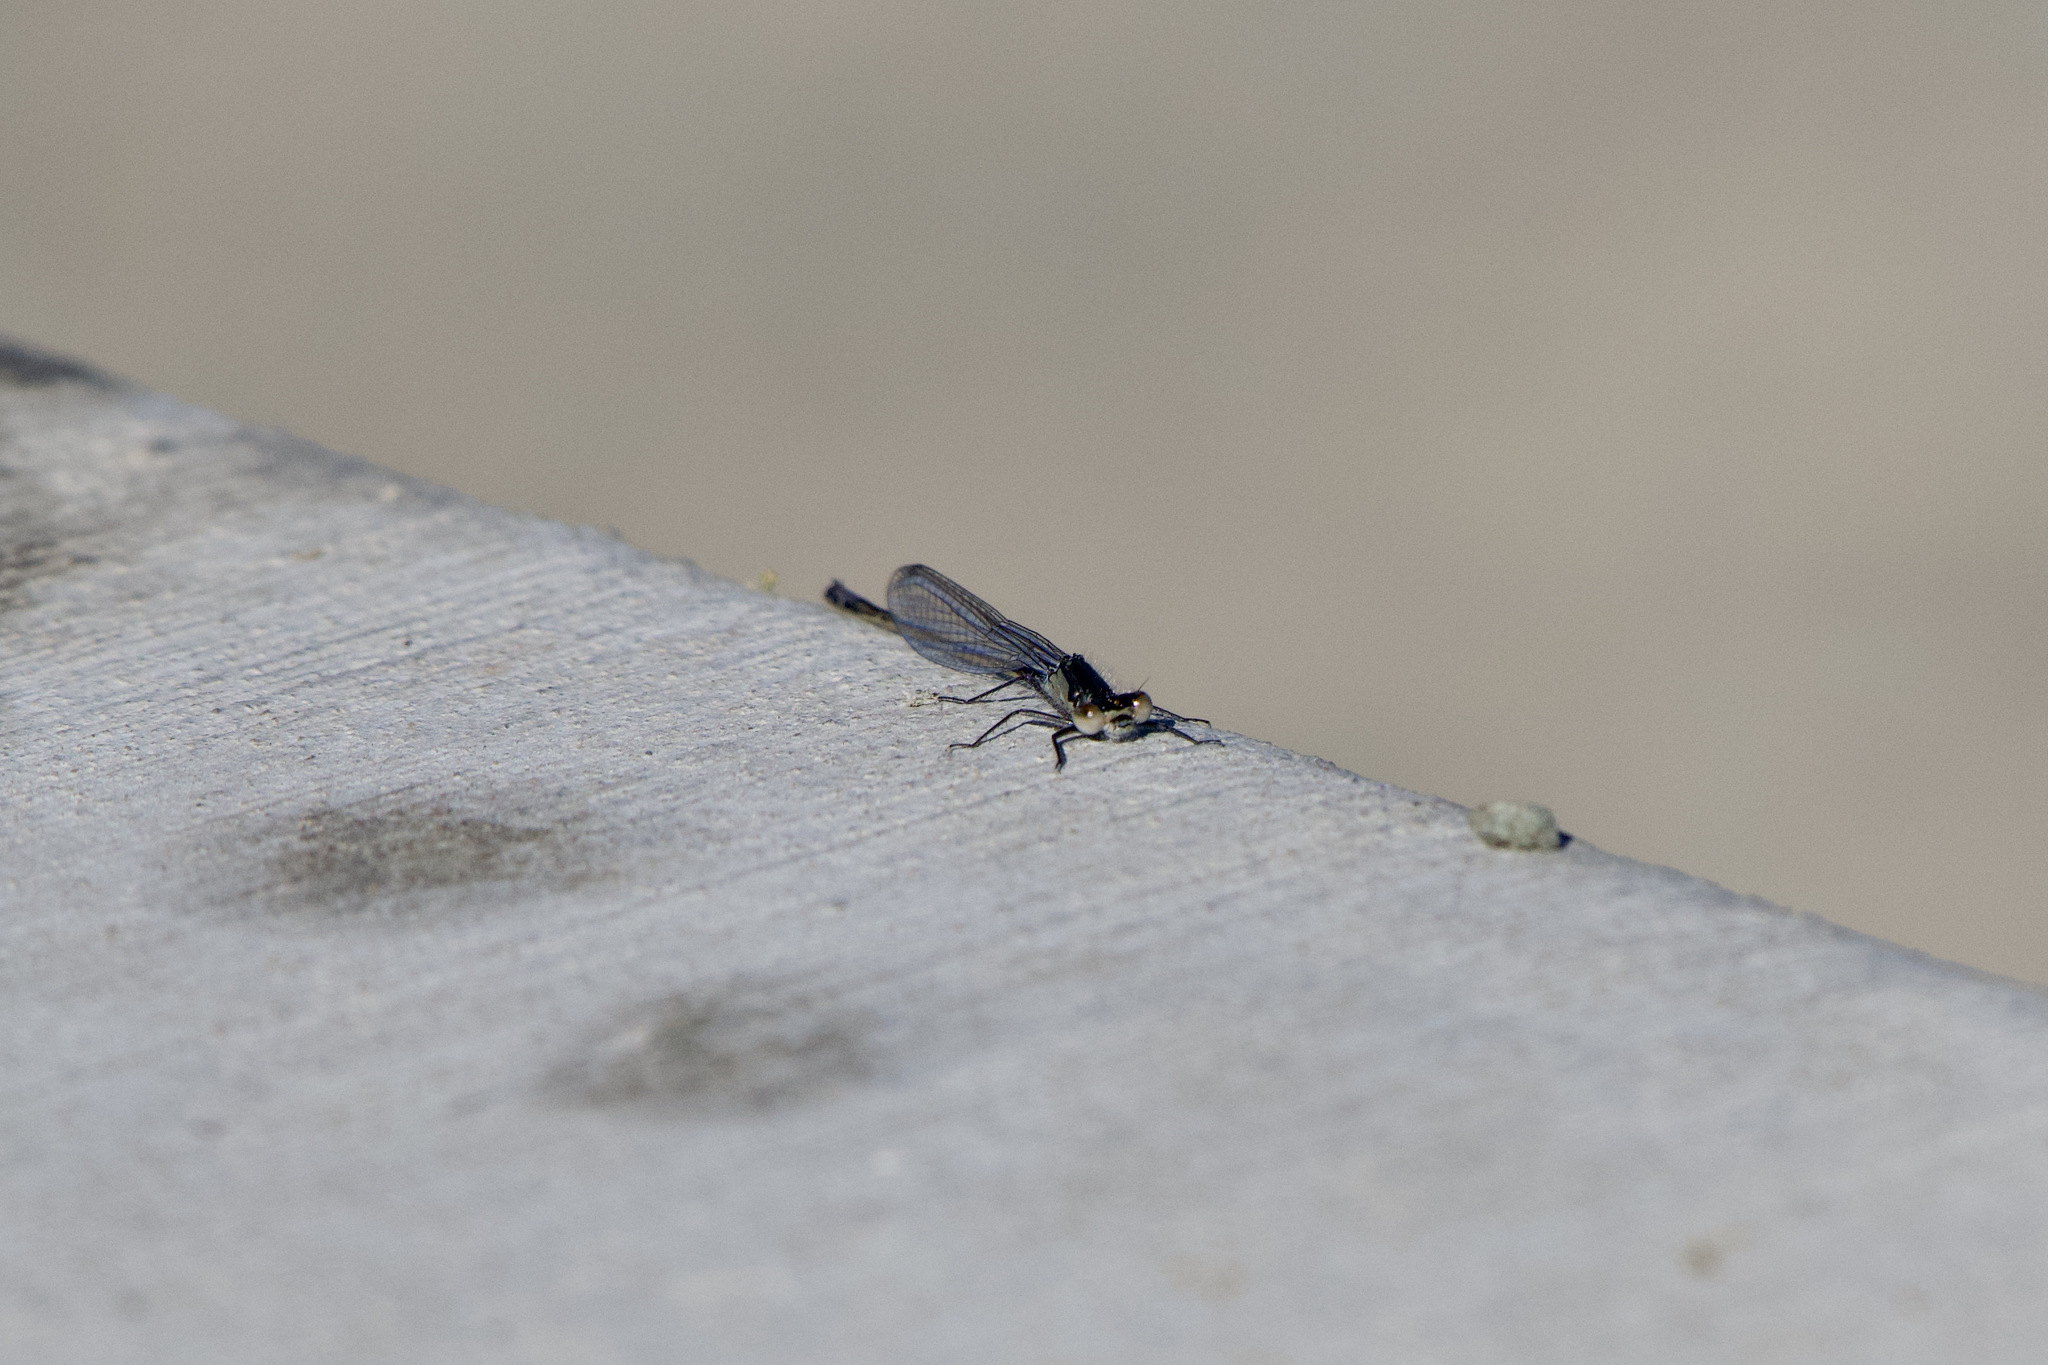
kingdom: Animalia
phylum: Arthropoda
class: Insecta
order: Odonata
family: Coenagrionidae
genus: Ischnura
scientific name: Ischnura cervula
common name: Pacific forktail
